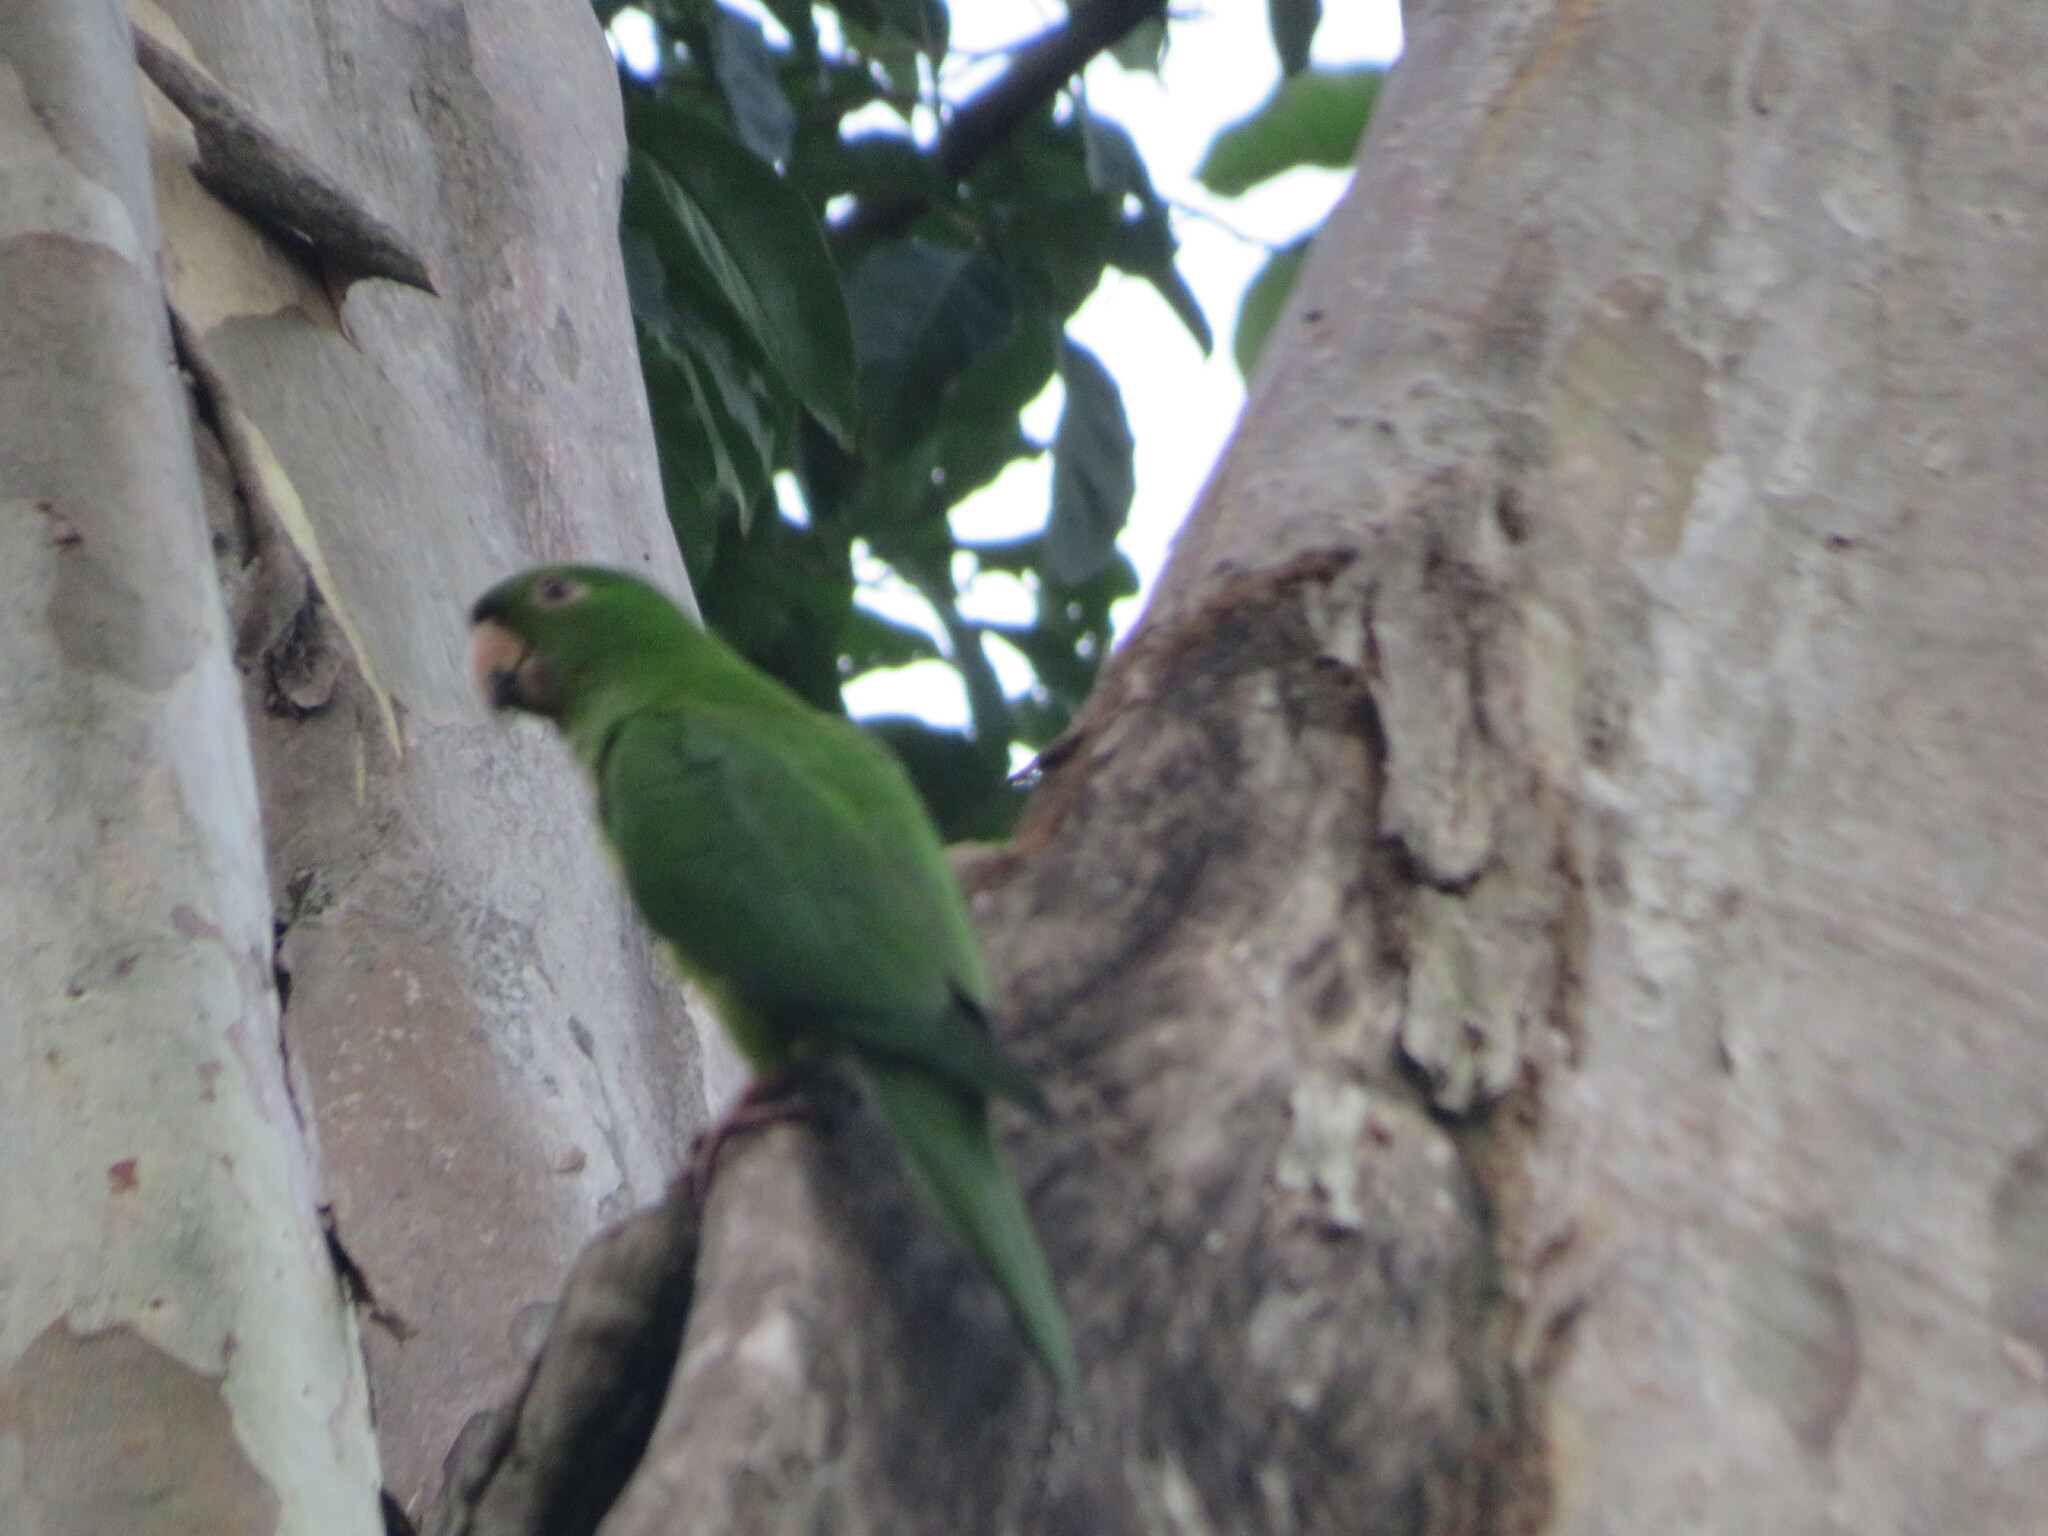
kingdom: Animalia
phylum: Chordata
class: Aves
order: Psittaciformes
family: Psittacidae
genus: Aratinga
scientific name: Aratinga strenua
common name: Pacific parakeet
